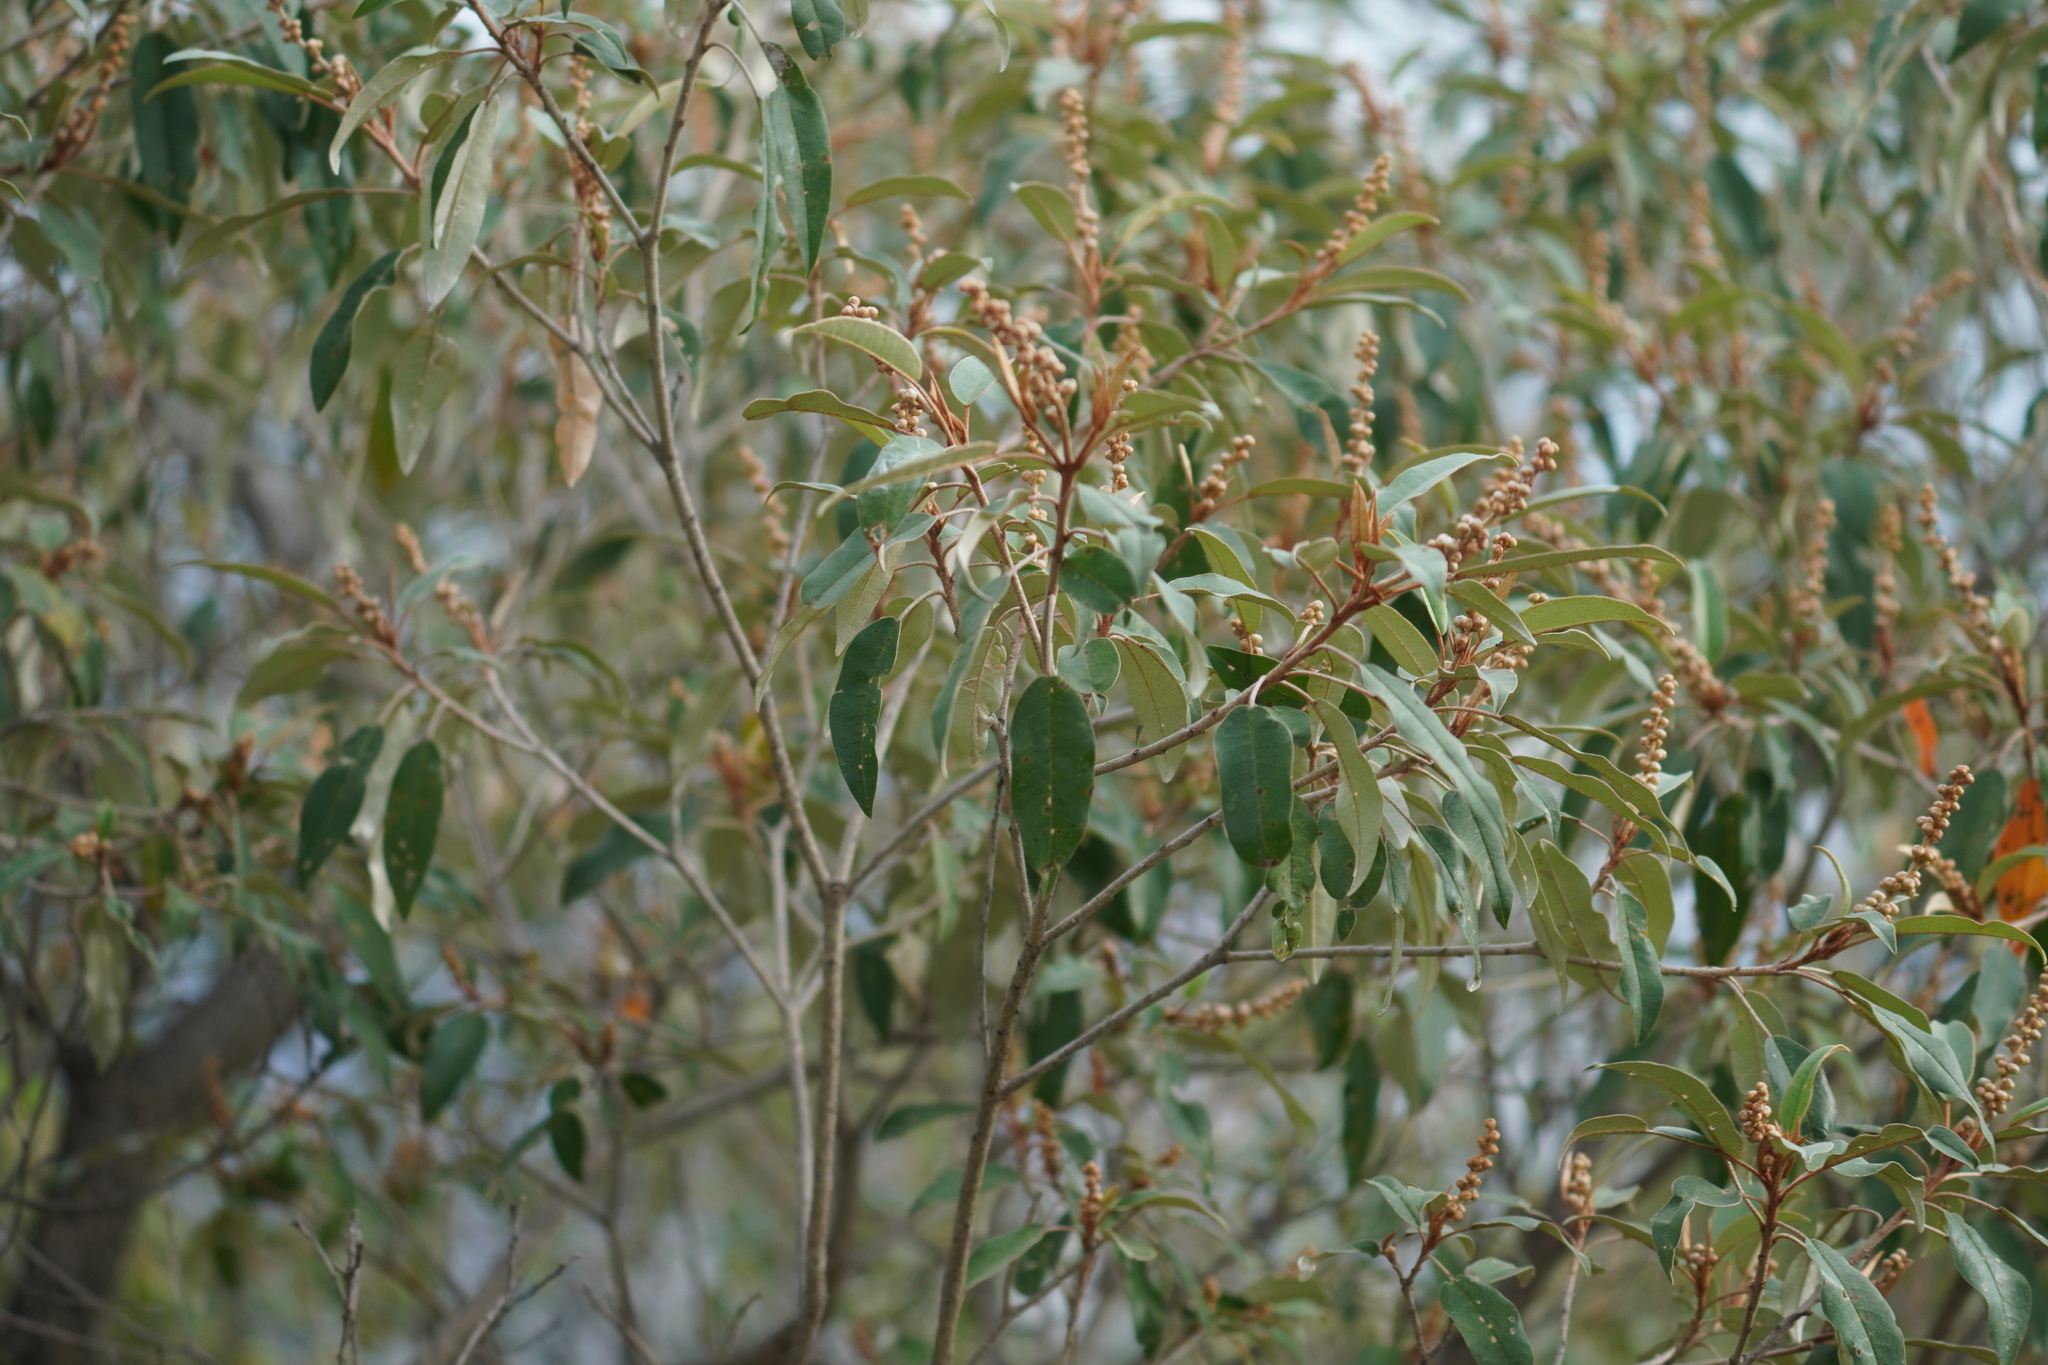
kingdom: Plantae
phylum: Tracheophyta
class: Magnoliopsida
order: Malpighiales
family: Euphorbiaceae
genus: Croton
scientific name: Croton gratissimus
